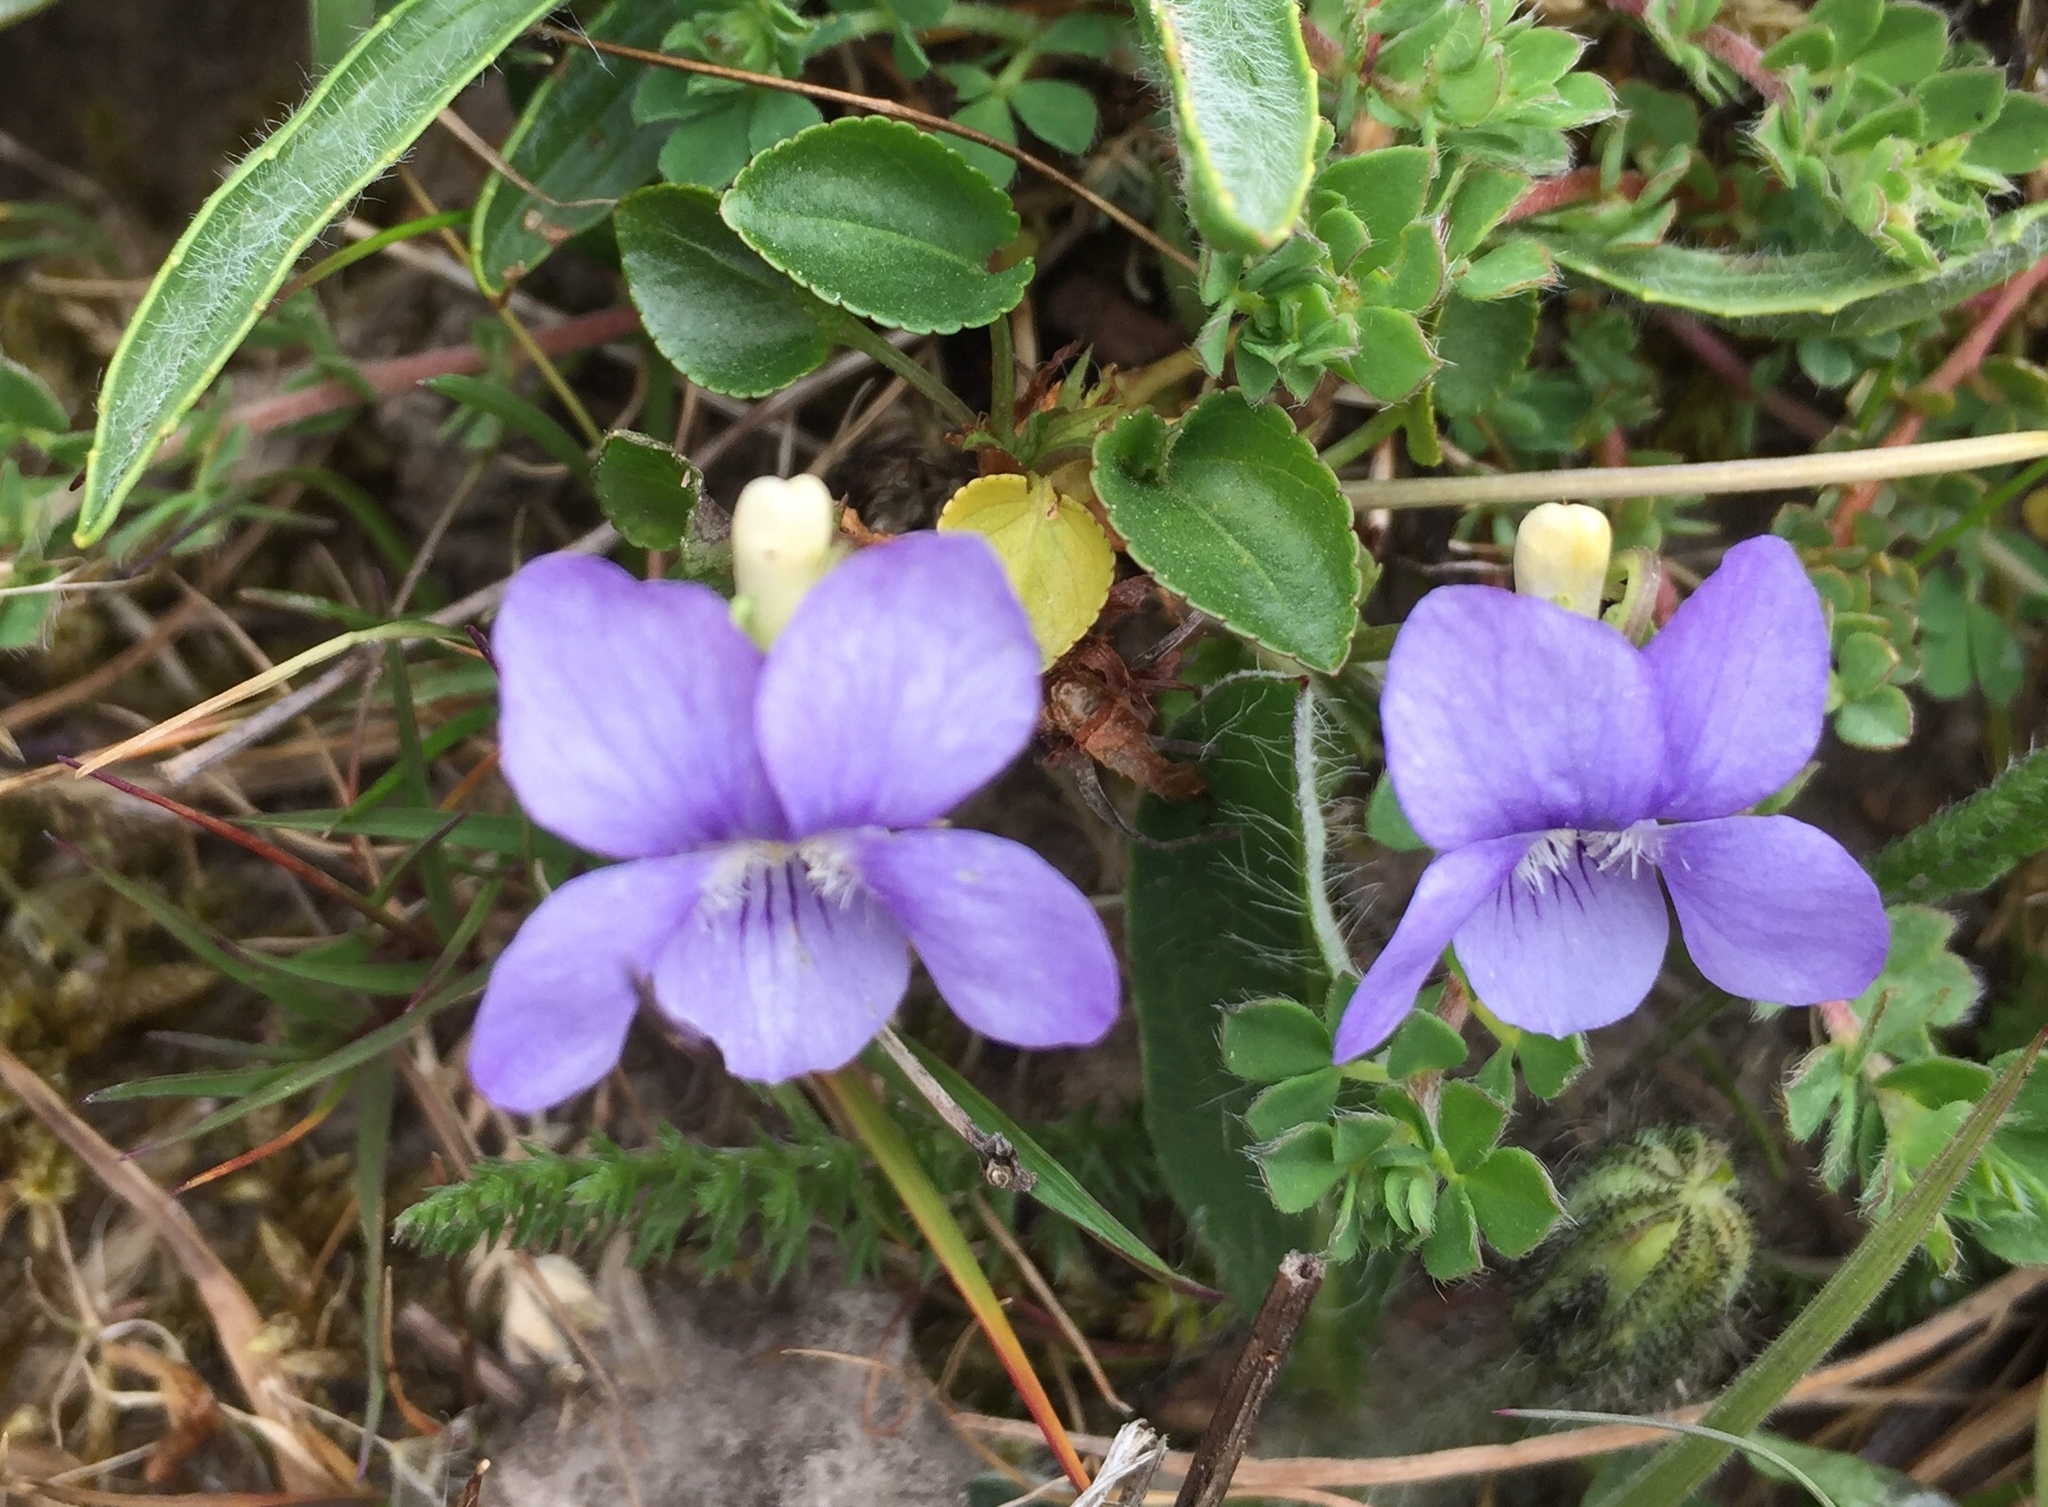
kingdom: Plantae
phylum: Tracheophyta
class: Magnoliopsida
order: Malpighiales
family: Violaceae
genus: Viola
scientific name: Viola riviniana
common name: Common dog-violet
